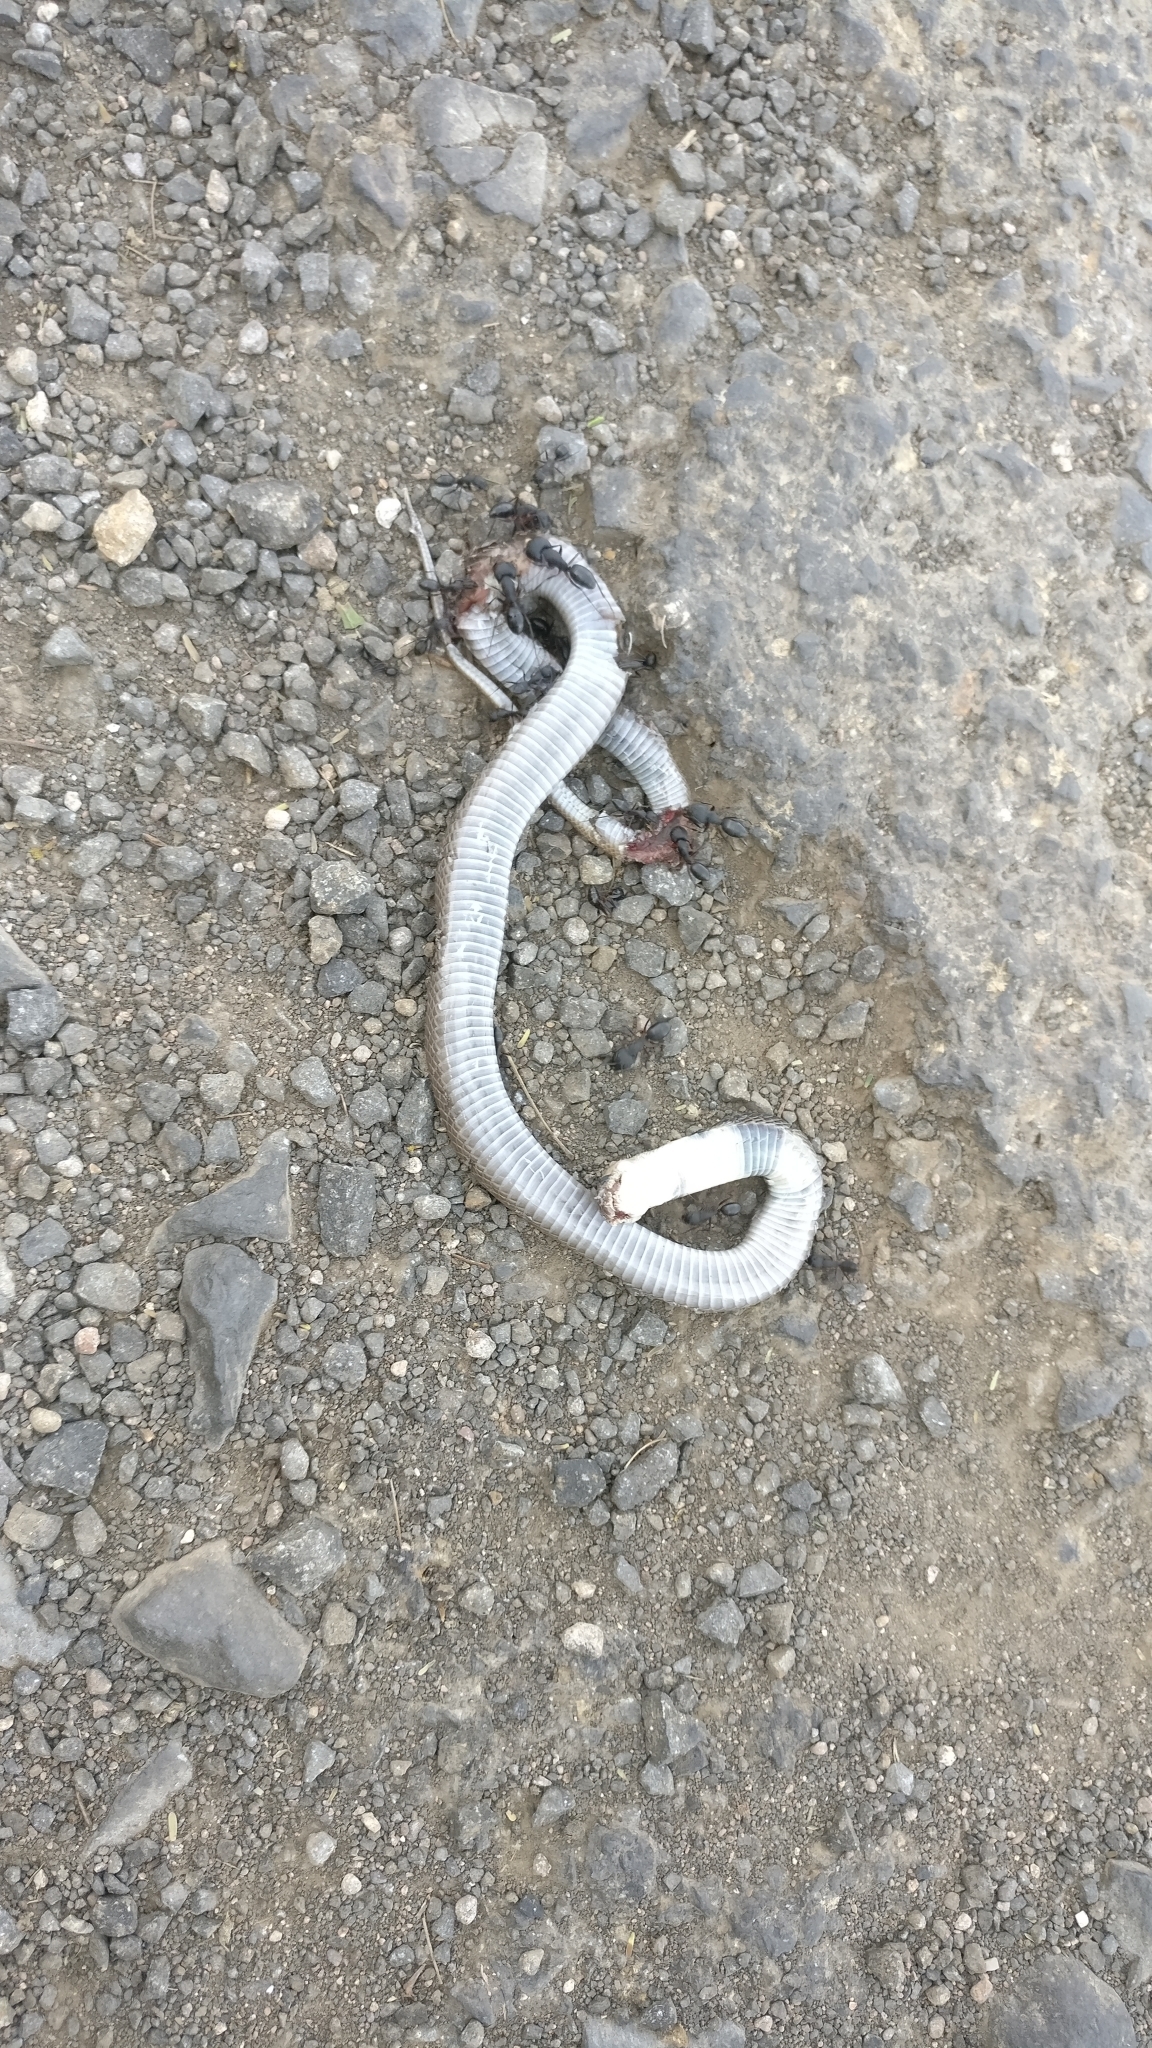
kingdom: Animalia
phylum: Chordata
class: Squamata
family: Elapidae
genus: Naja
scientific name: Naja naja
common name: Indian cobra
